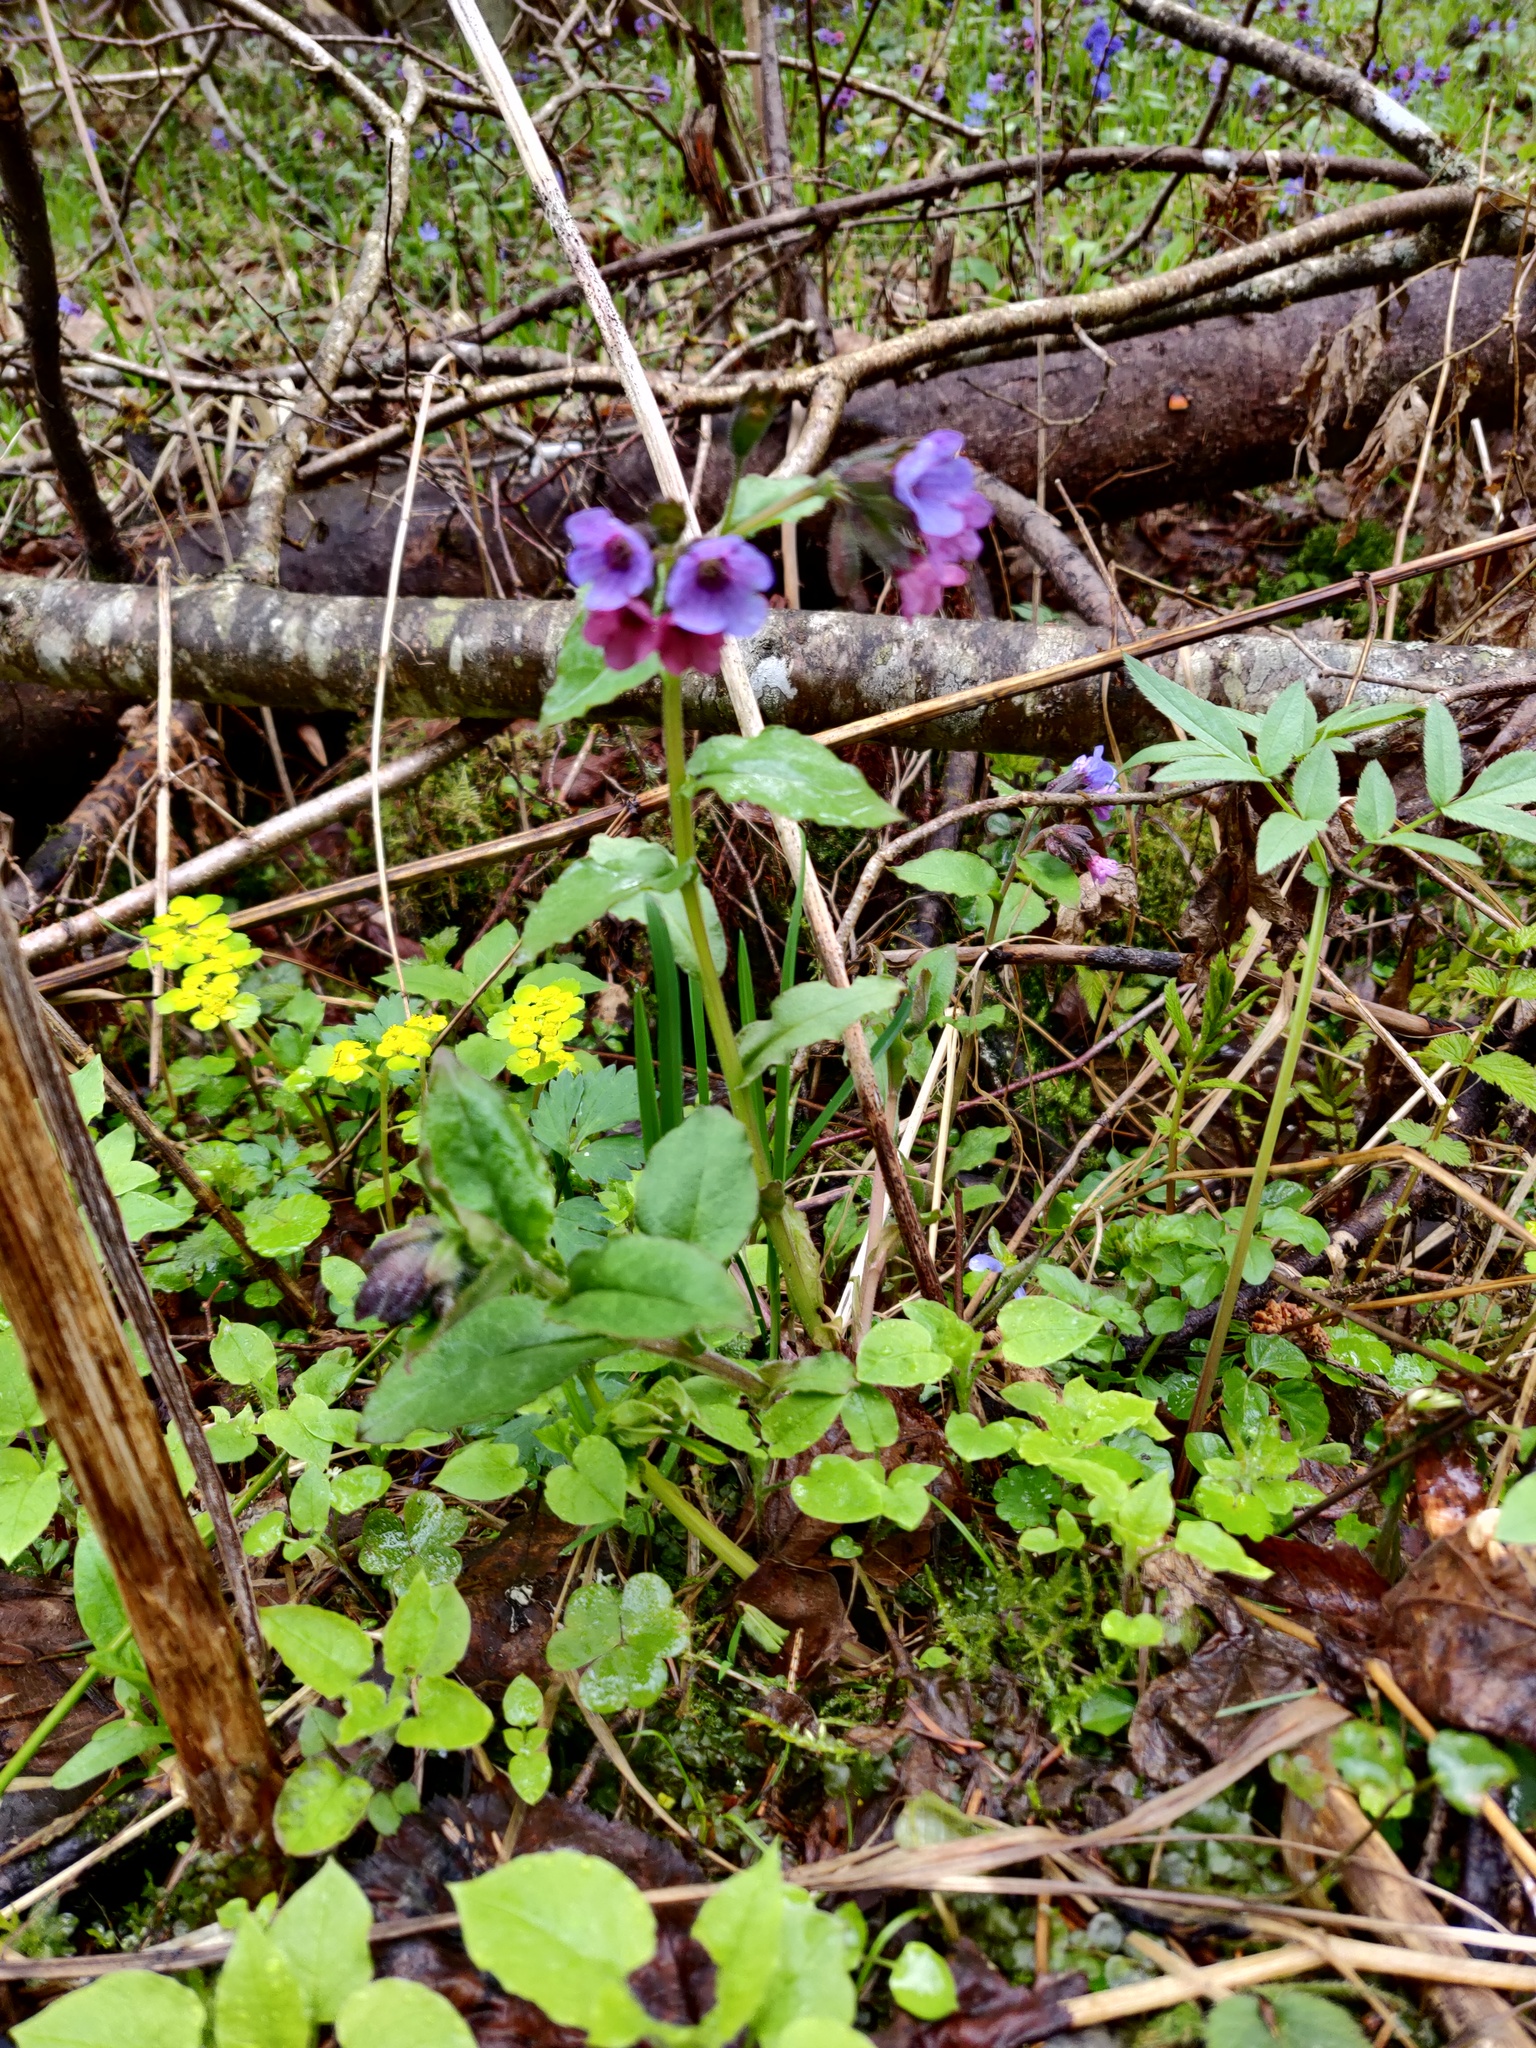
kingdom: Plantae
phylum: Tracheophyta
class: Magnoliopsida
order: Boraginales
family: Boraginaceae
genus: Pulmonaria
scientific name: Pulmonaria obscura
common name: Suffolk lungwort
